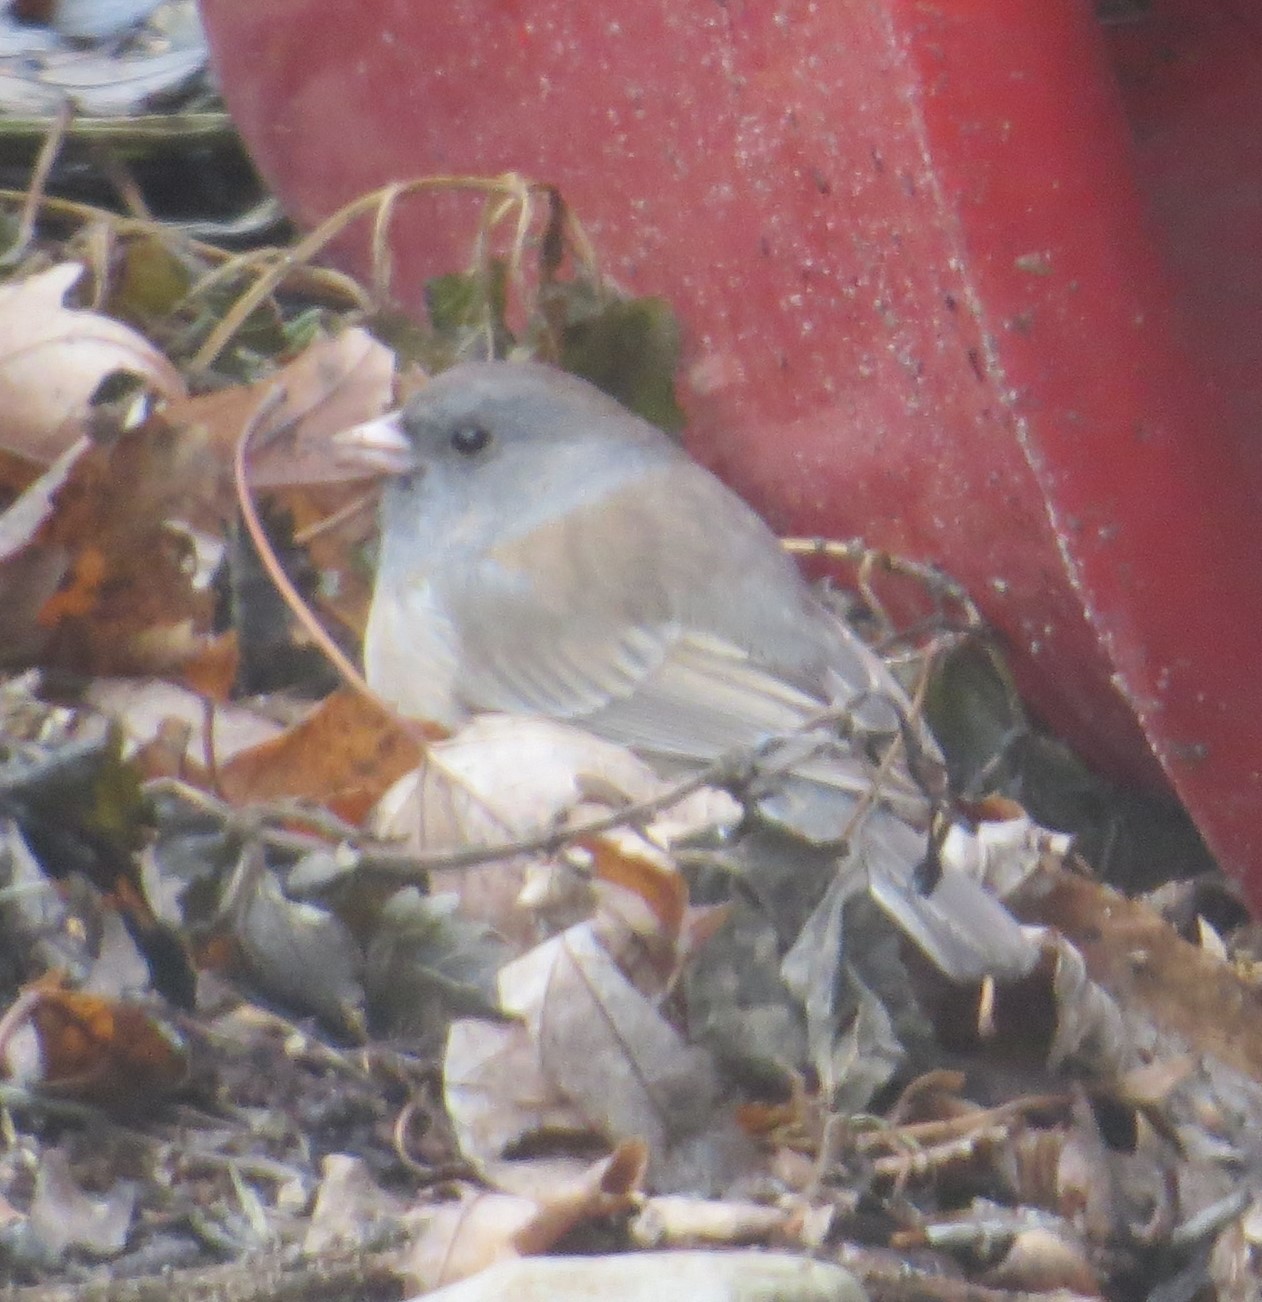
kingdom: Animalia
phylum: Chordata
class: Aves
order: Passeriformes
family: Passerellidae
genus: Junco
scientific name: Junco hyemalis
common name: Dark-eyed junco
